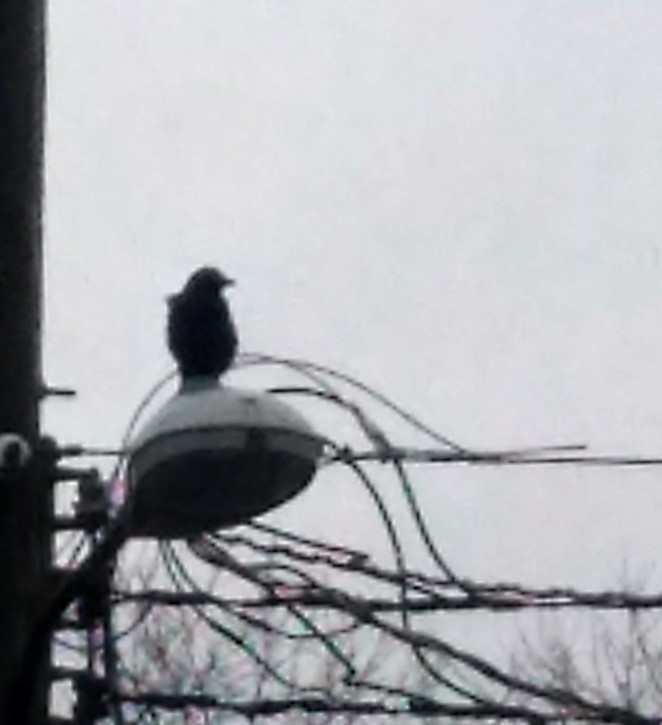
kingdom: Animalia
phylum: Chordata
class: Aves
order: Passeriformes
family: Corvidae
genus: Corvus
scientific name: Corvus brachyrhynchos
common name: American crow
